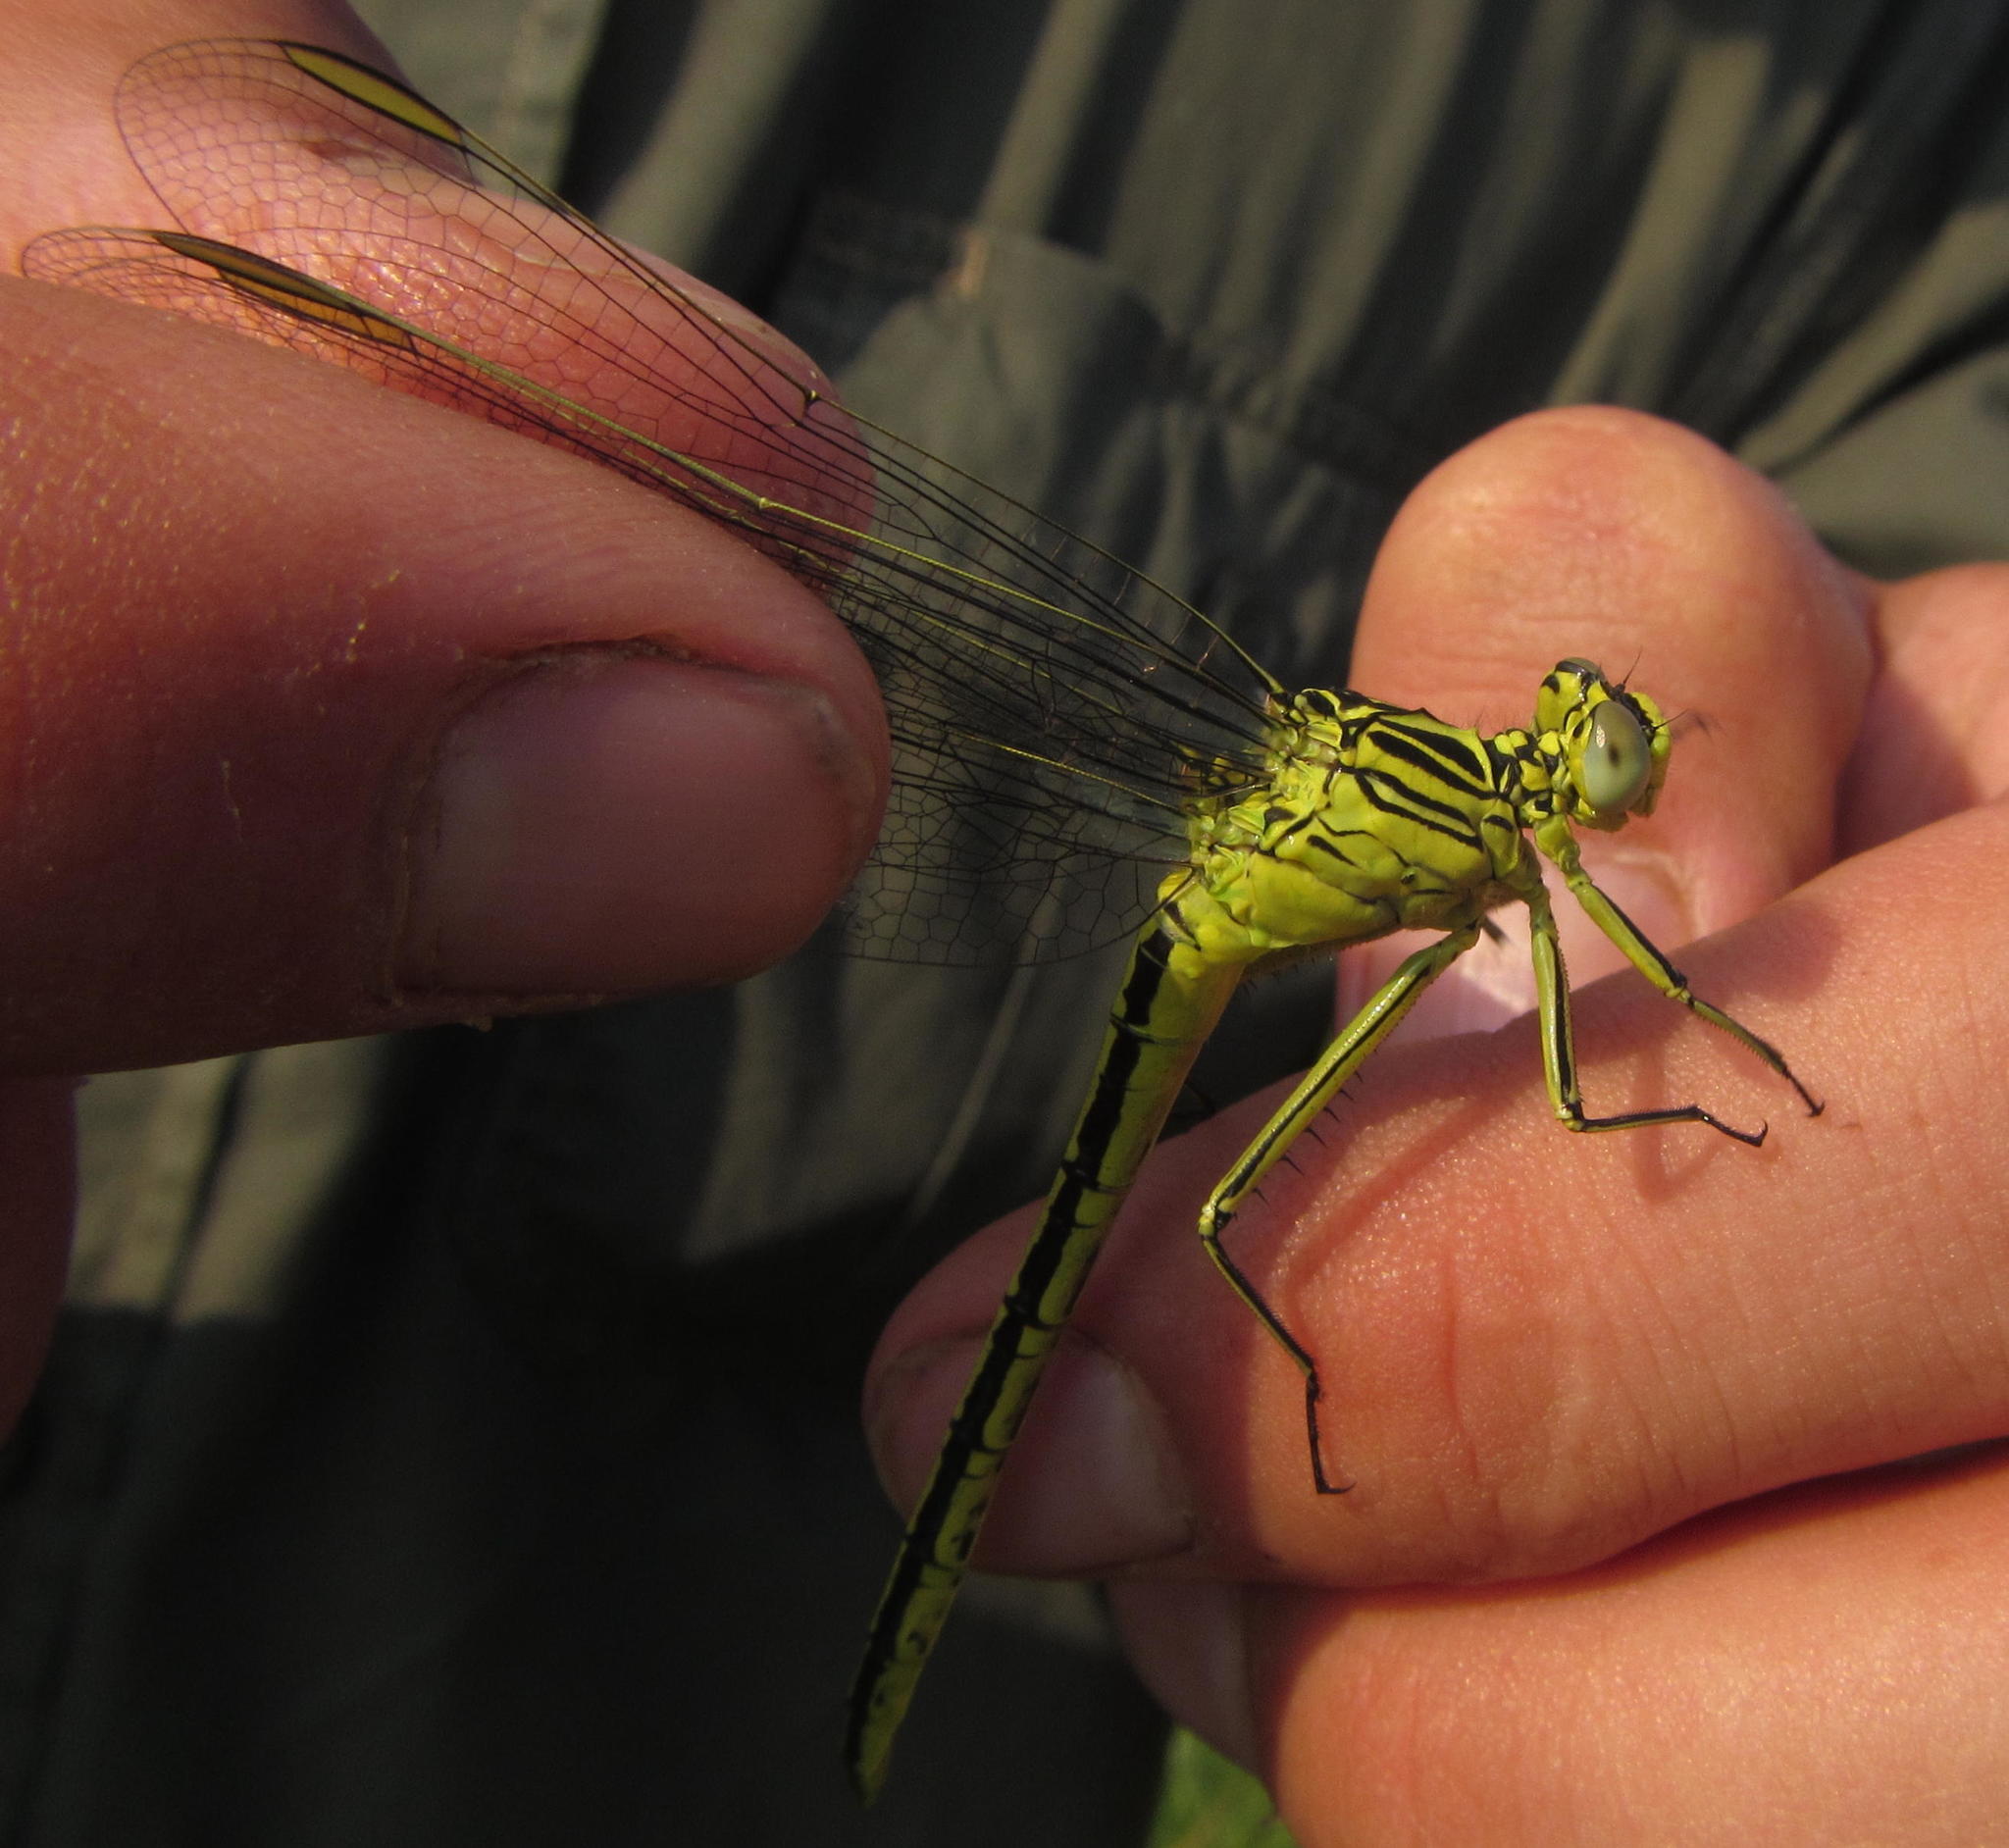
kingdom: Animalia
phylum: Arthropoda
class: Insecta
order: Odonata
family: Gomphidae
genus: Notogomphus
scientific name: Notogomphus praetorius
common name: Southern yellowjack
